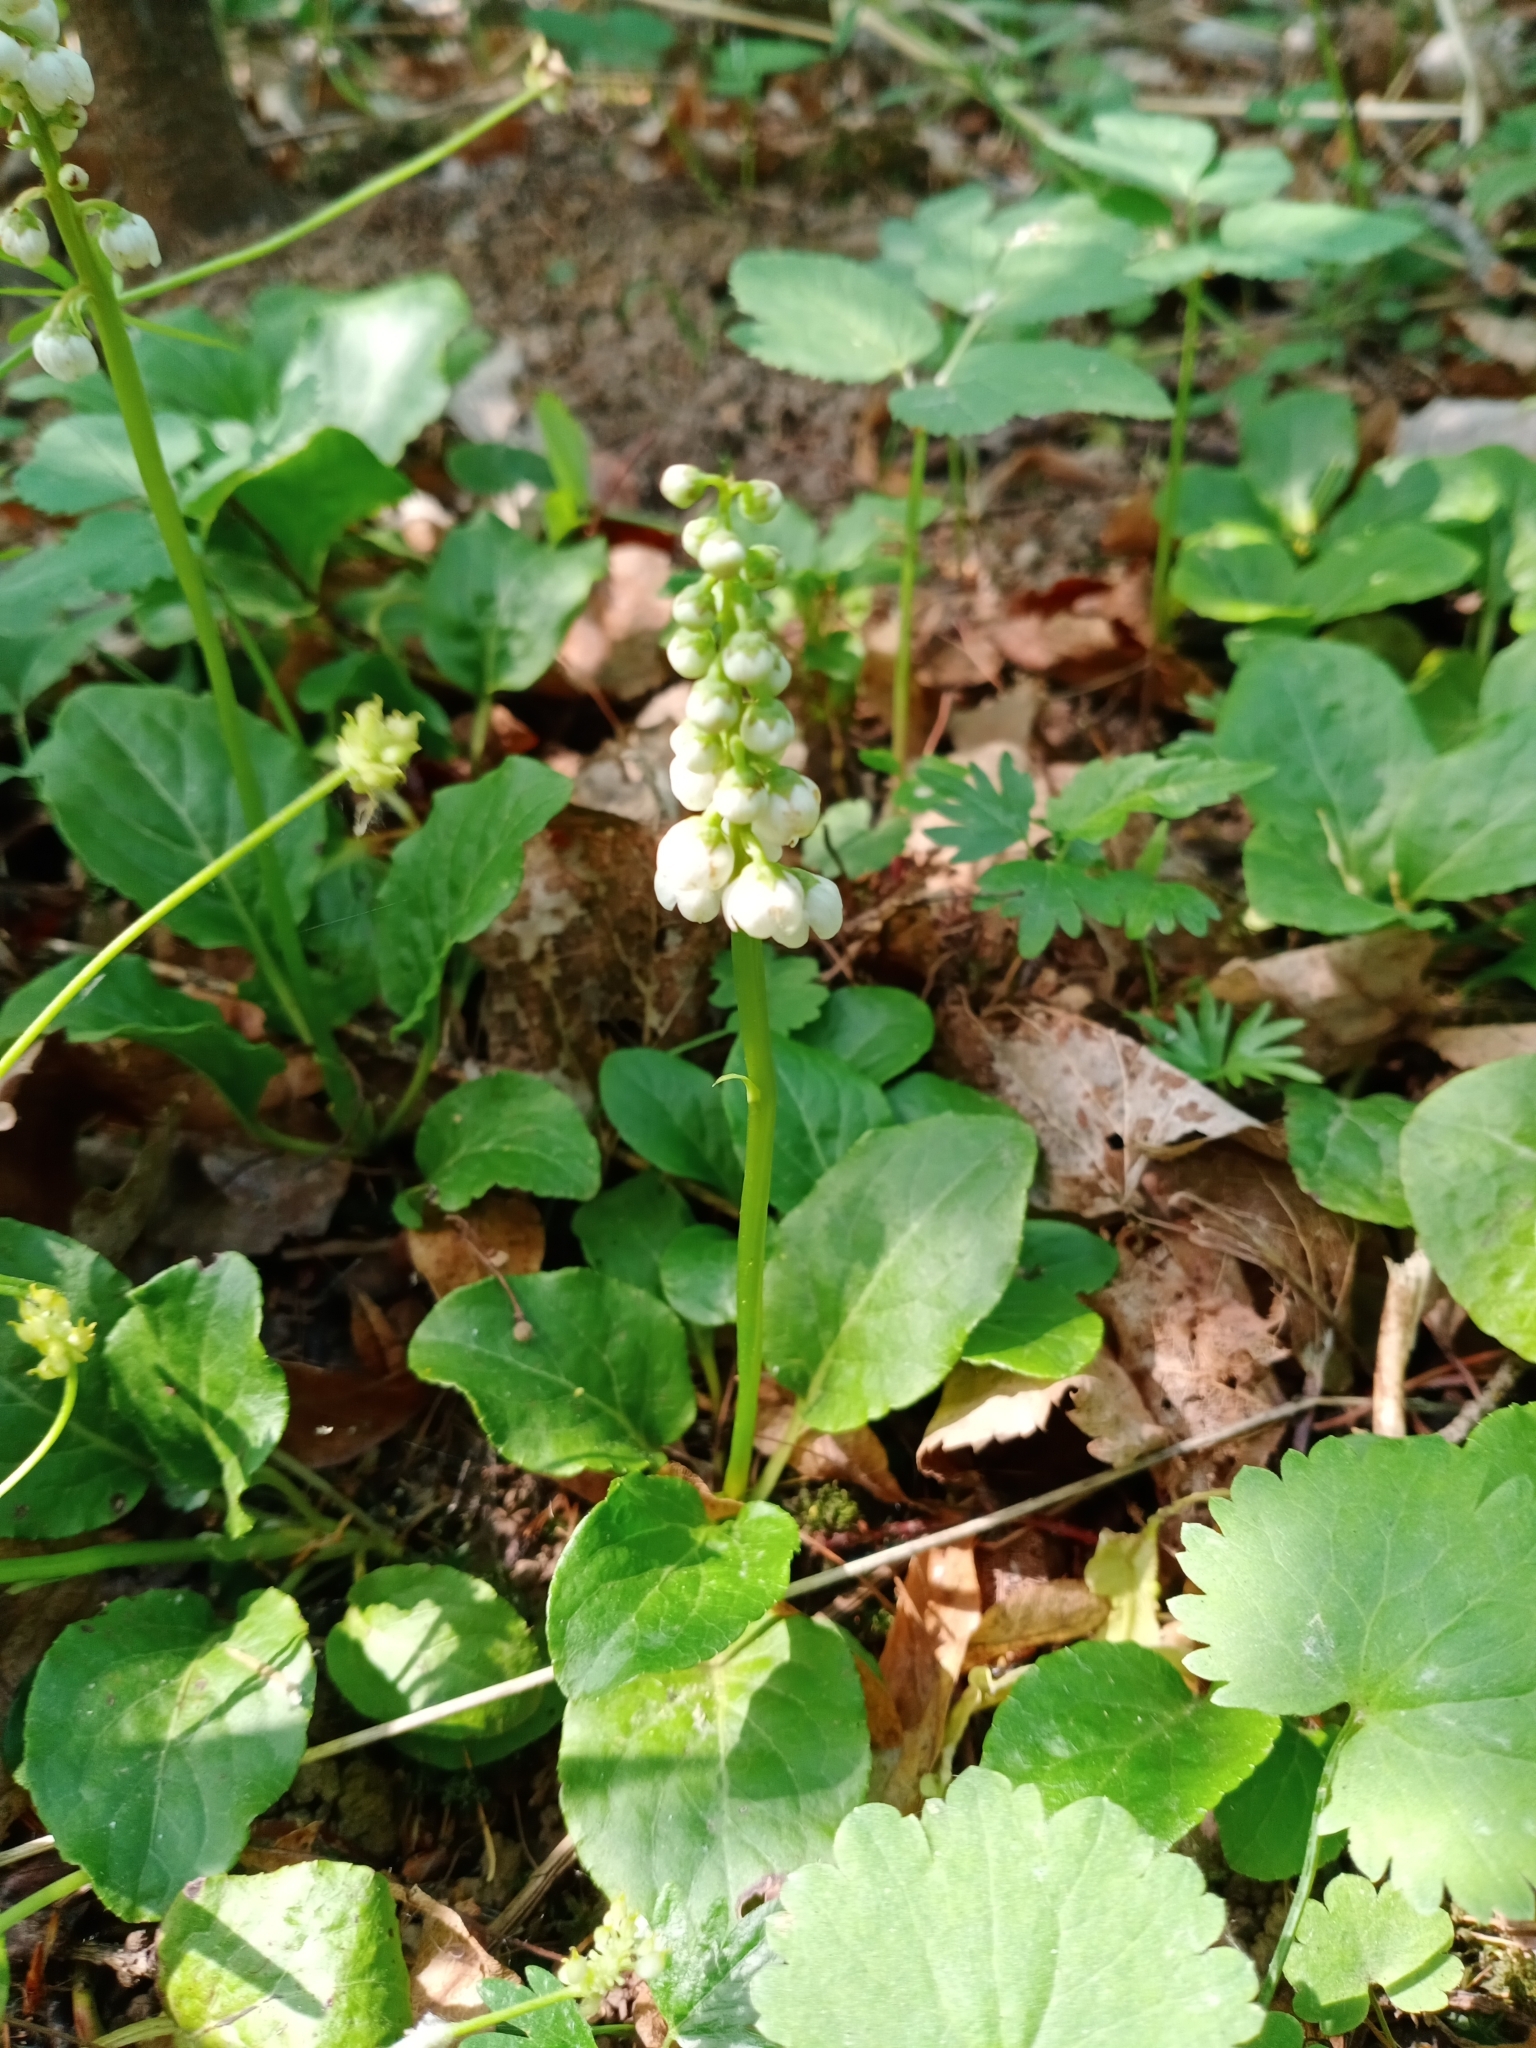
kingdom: Plantae
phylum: Tracheophyta
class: Magnoliopsida
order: Ericales
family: Ericaceae
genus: Pyrola
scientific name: Pyrola minor
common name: Common wintergreen
